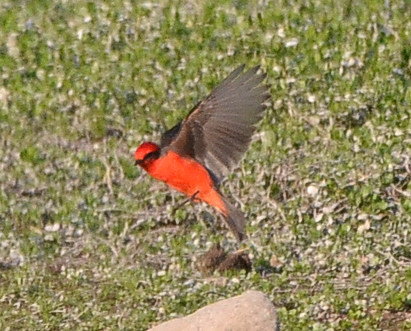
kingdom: Animalia
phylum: Chordata
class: Aves
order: Passeriformes
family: Tyrannidae
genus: Pyrocephalus
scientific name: Pyrocephalus rubinus
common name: Vermilion flycatcher
